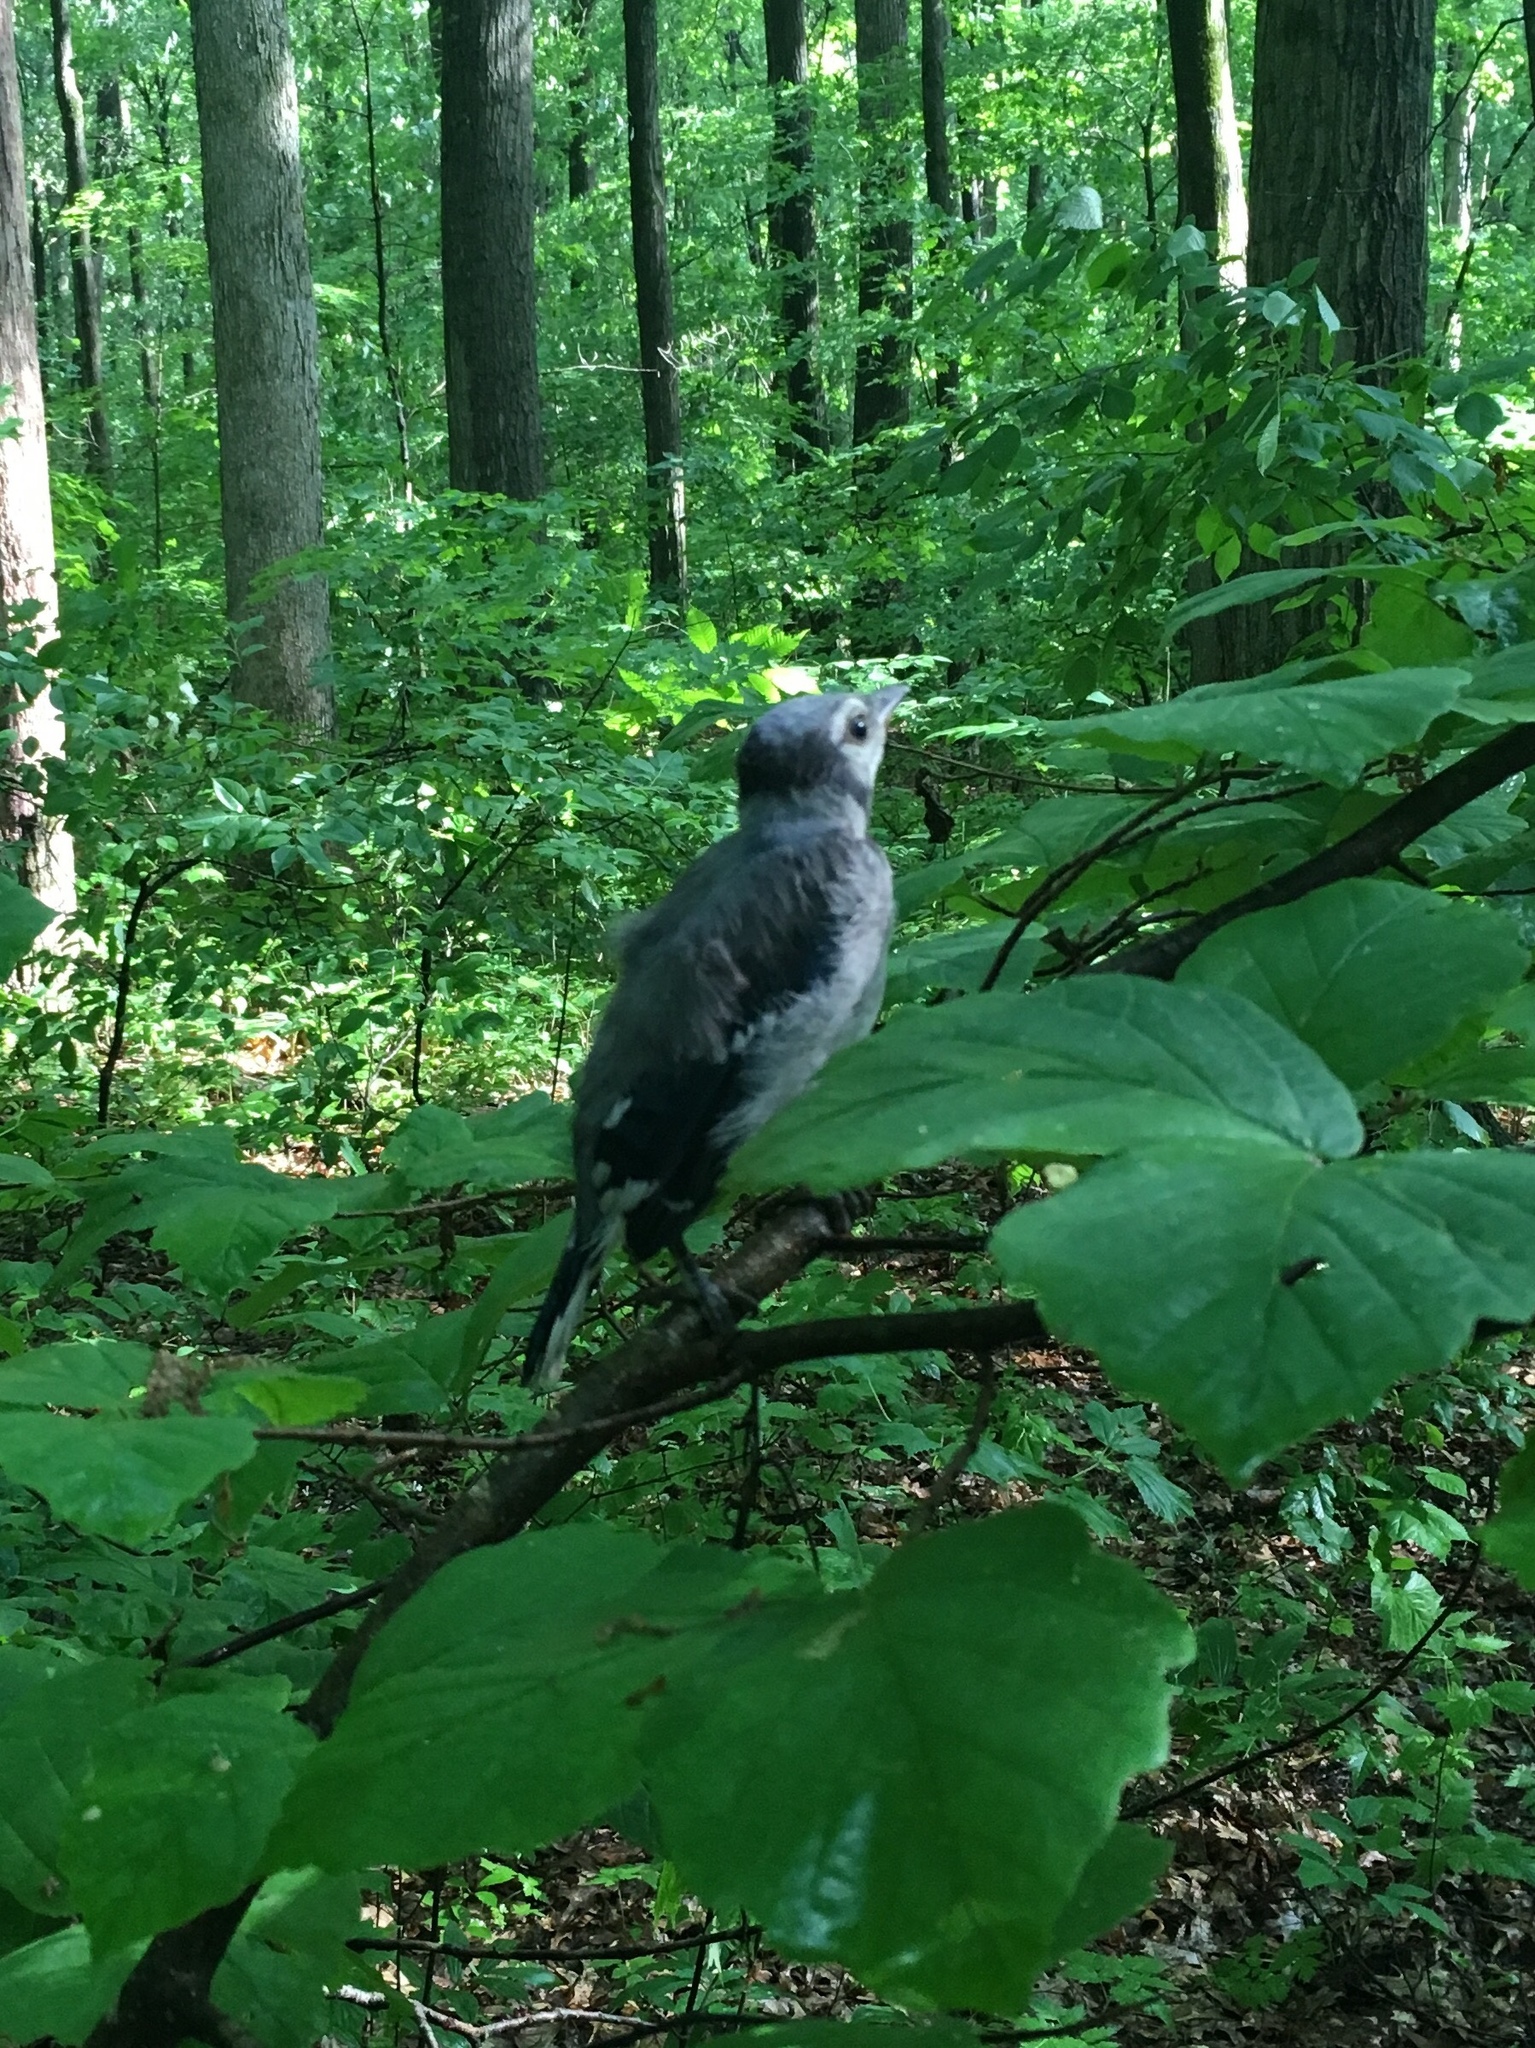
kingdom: Animalia
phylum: Chordata
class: Aves
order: Passeriformes
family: Corvidae
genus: Cyanocitta
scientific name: Cyanocitta cristata
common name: Blue jay
